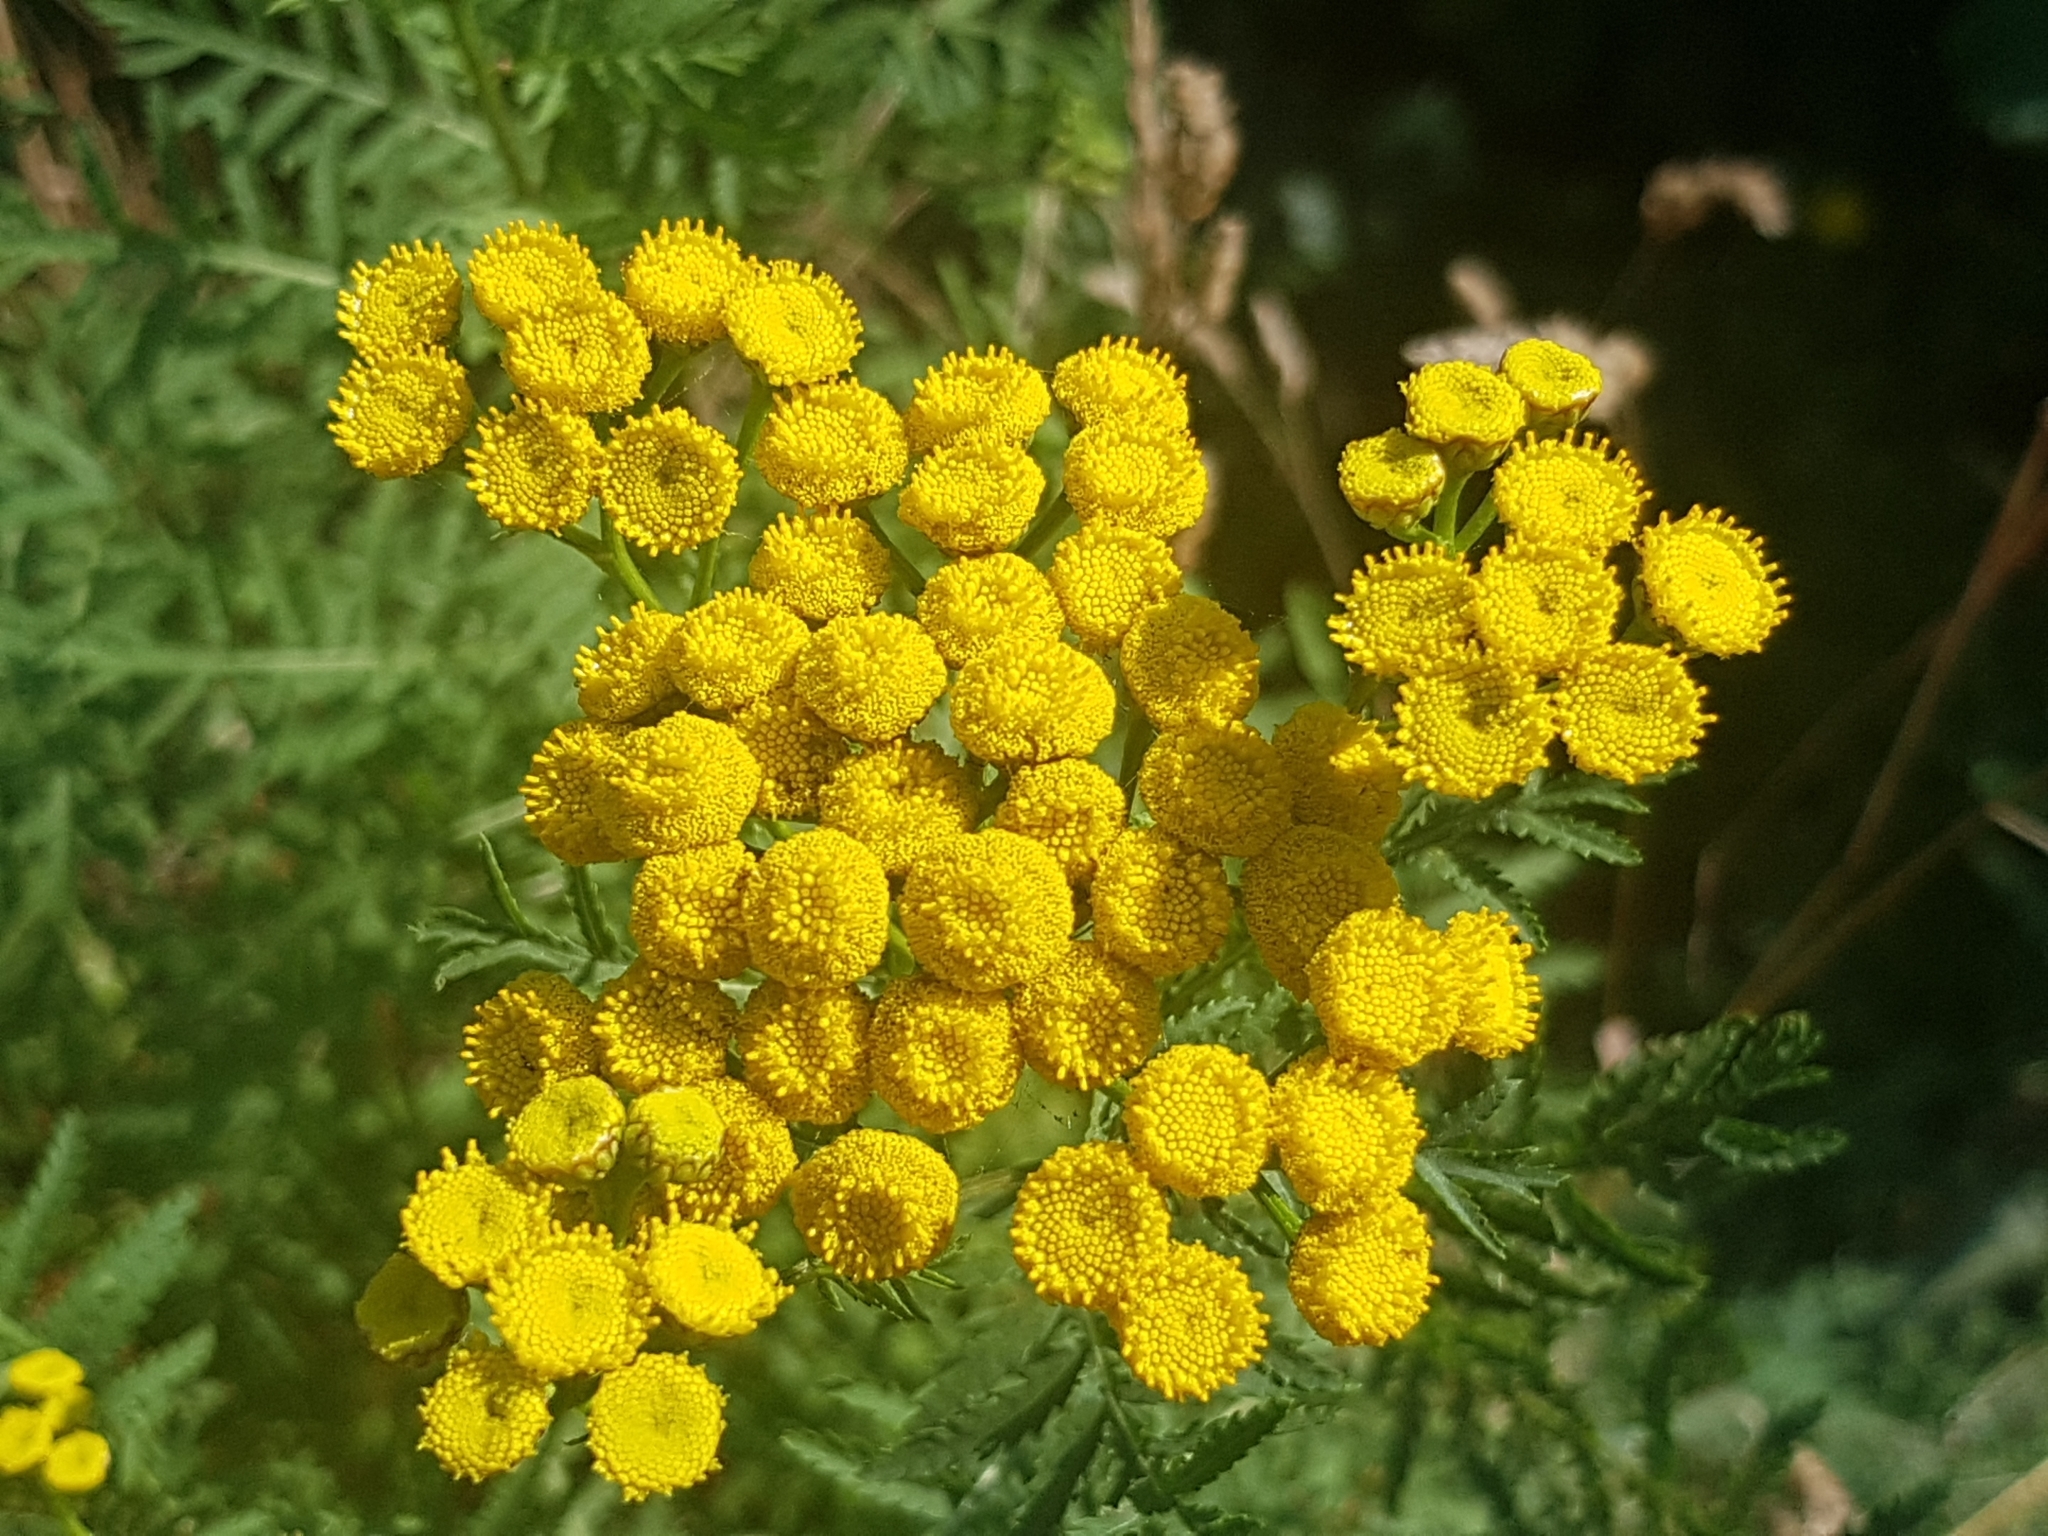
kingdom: Plantae
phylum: Tracheophyta
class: Magnoliopsida
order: Asterales
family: Asteraceae
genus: Tanacetum
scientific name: Tanacetum vulgare
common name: Common tansy
